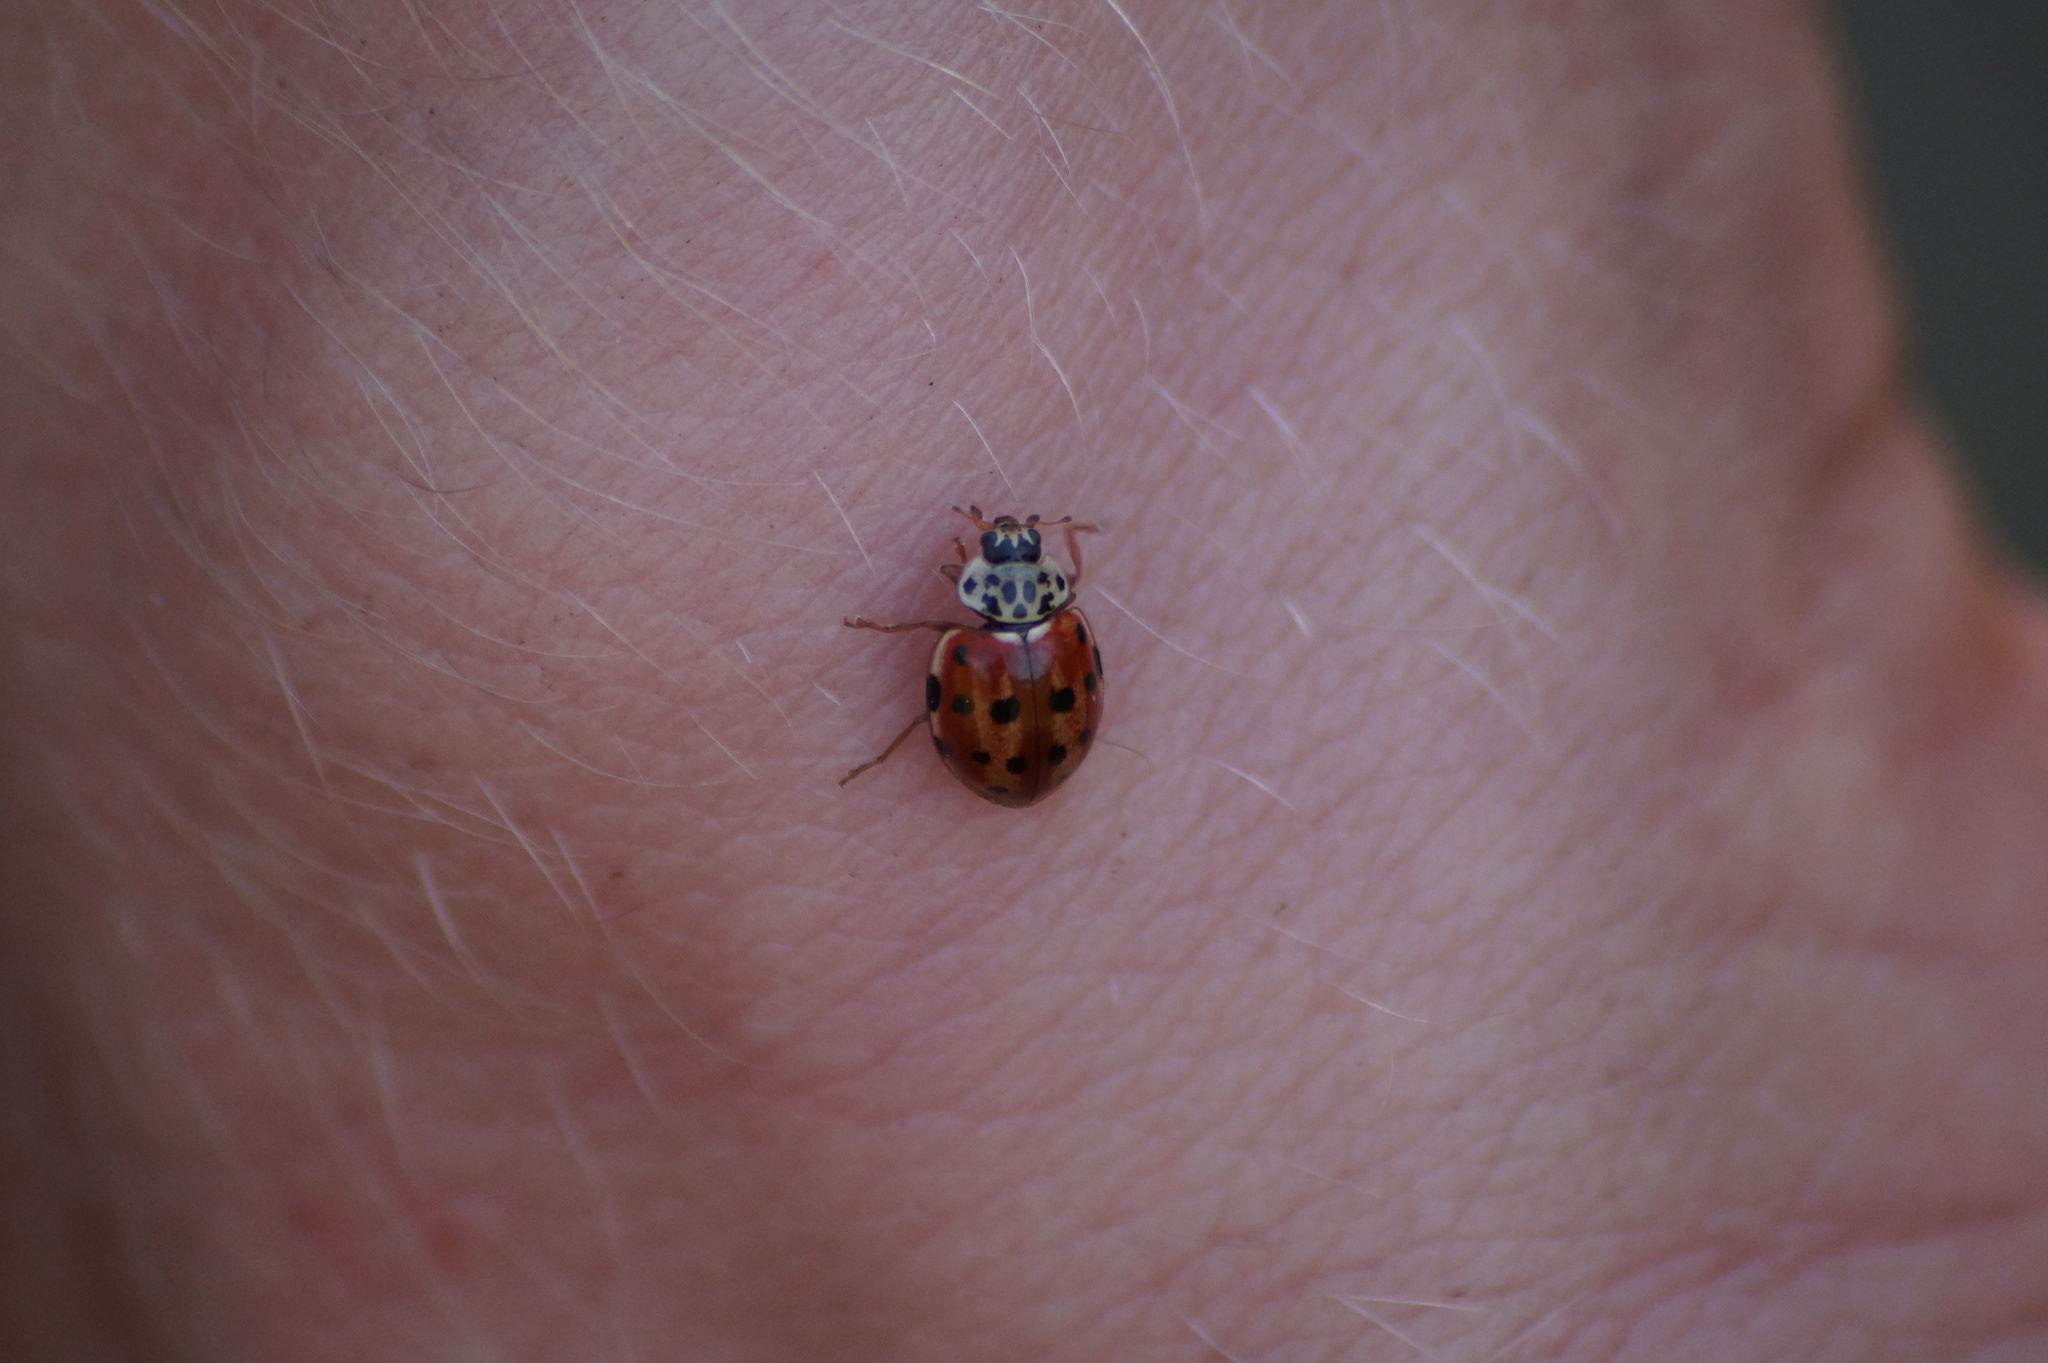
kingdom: Animalia
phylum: Arthropoda
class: Insecta
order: Coleoptera
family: Coccinellidae
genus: Harmonia
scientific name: Harmonia quadripunctata
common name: Cream-streaked ladybird
